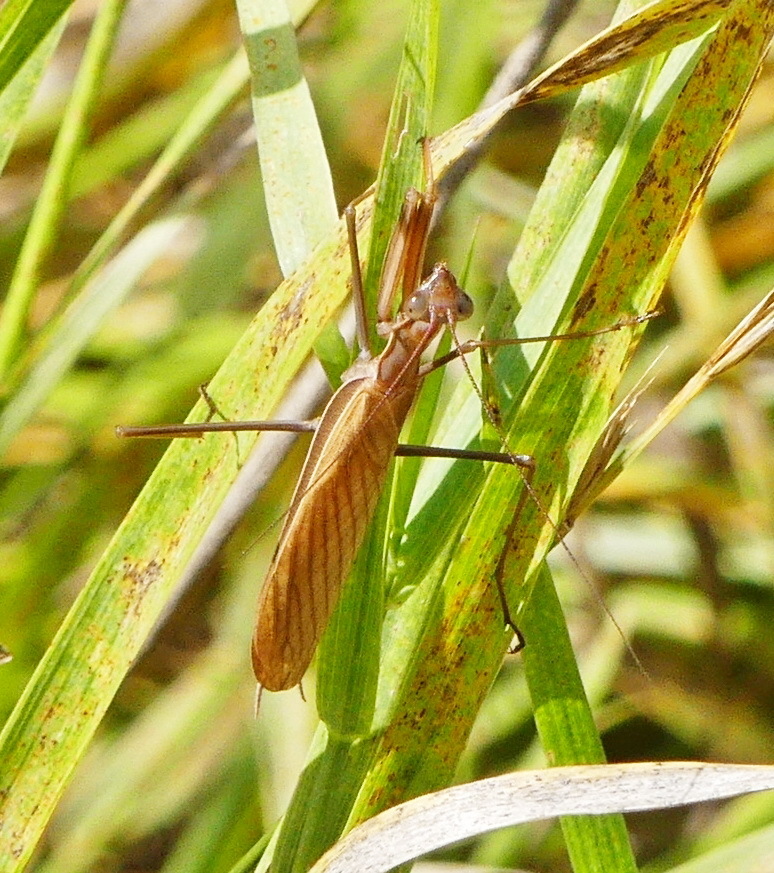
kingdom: Animalia
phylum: Arthropoda
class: Insecta
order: Mantodea
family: Mantidae
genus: Mantis
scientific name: Mantis religiosa
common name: Praying mantis
